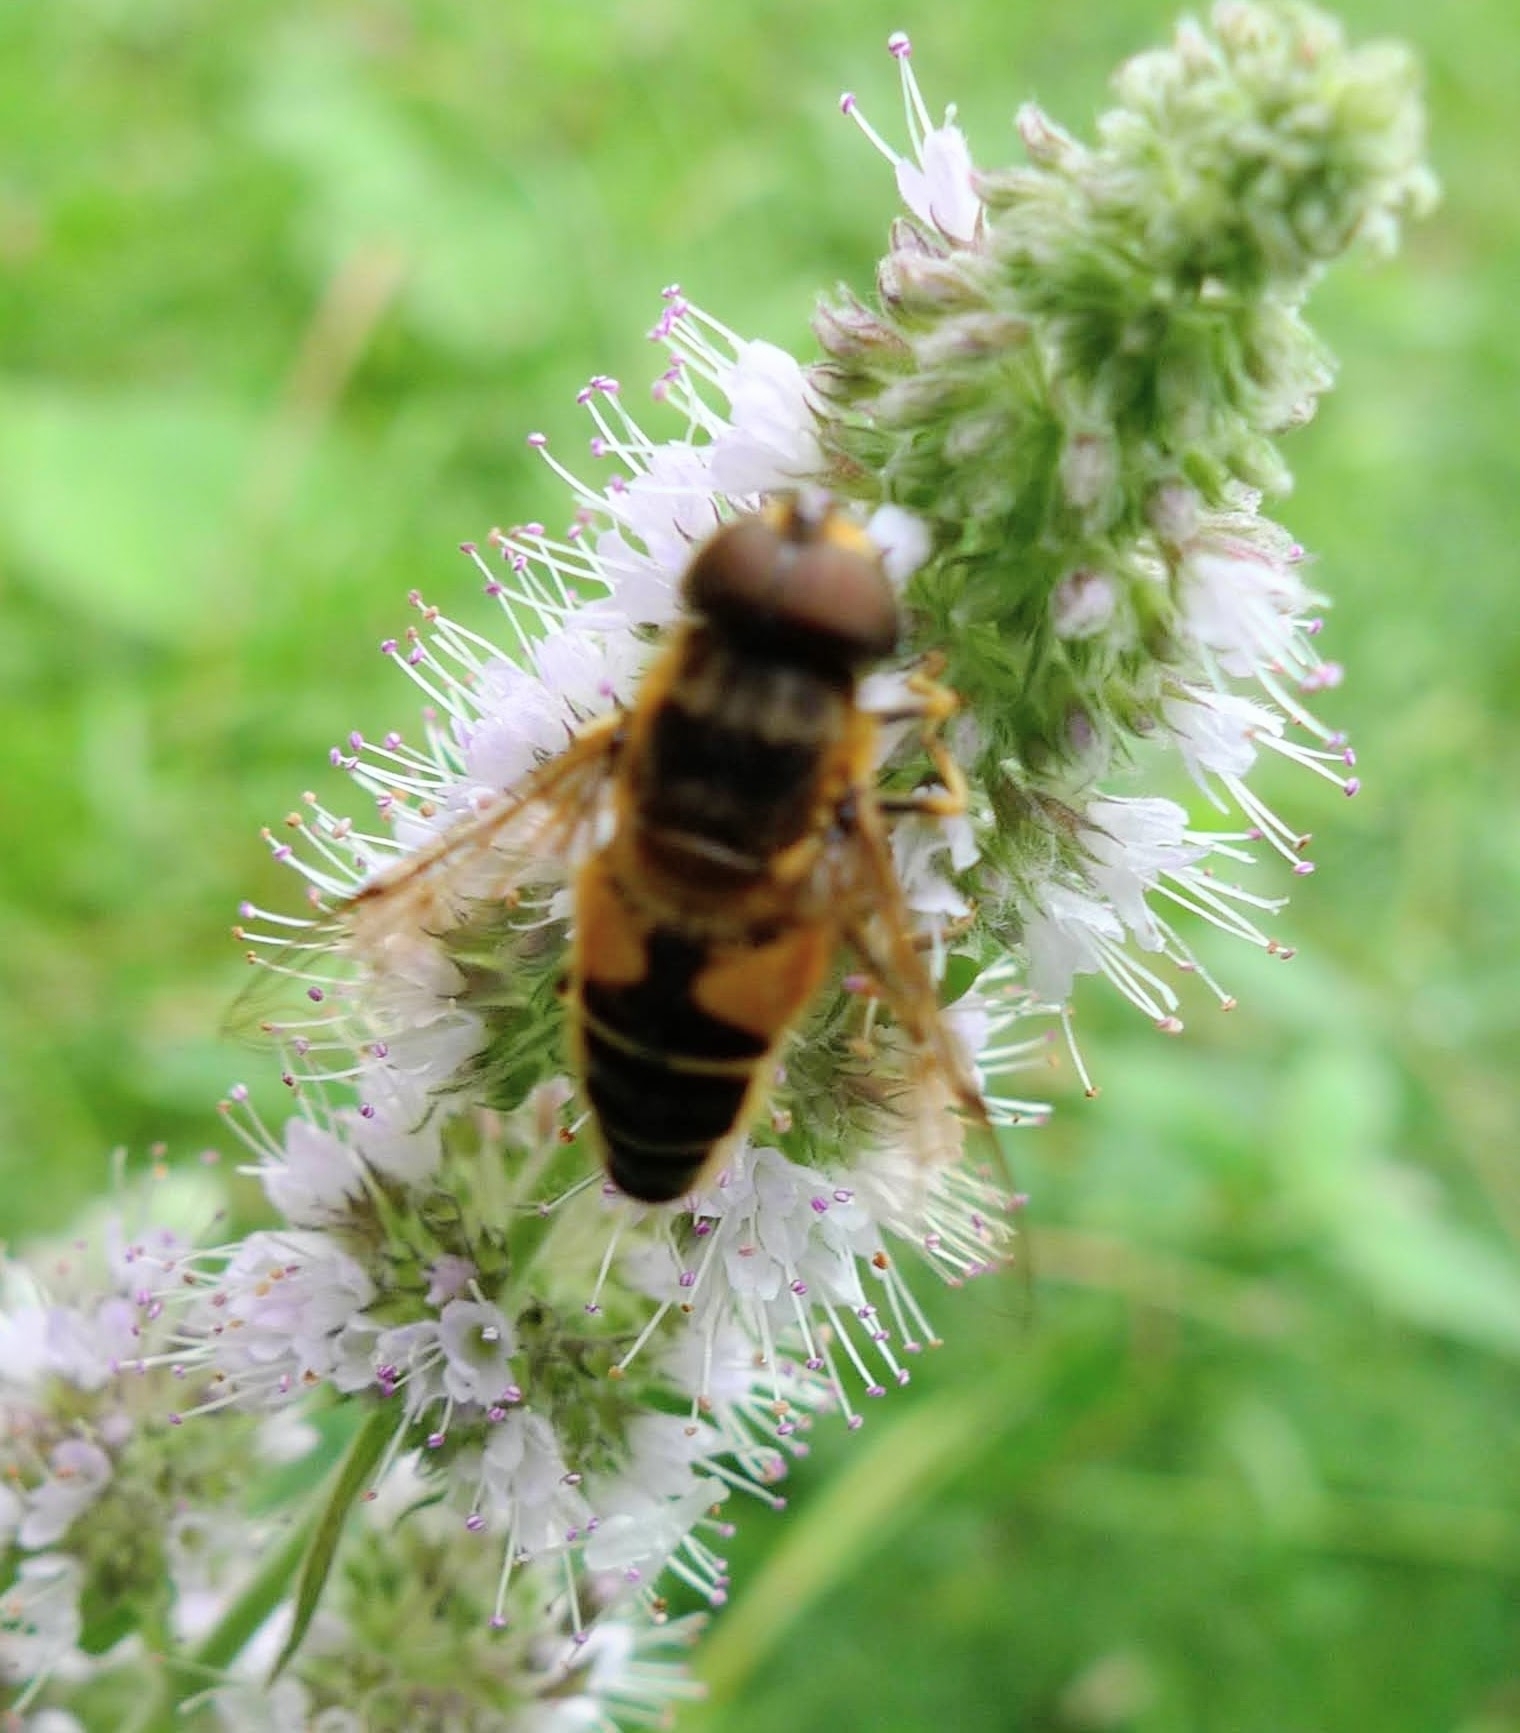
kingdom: Animalia
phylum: Arthropoda
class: Insecta
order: Diptera
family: Syrphidae
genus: Eristalis
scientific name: Eristalis pertinax
